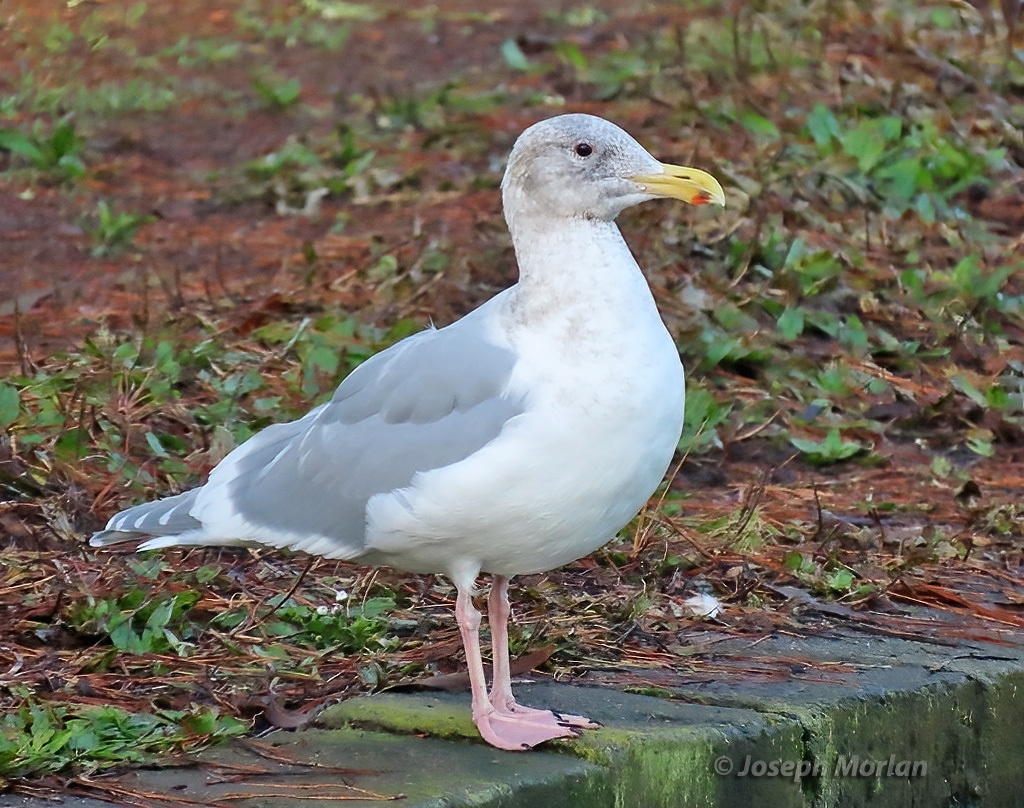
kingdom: Animalia
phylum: Chordata
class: Aves
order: Charadriiformes
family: Laridae
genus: Larus
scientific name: Larus glaucescens
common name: Glaucous-winged gull
